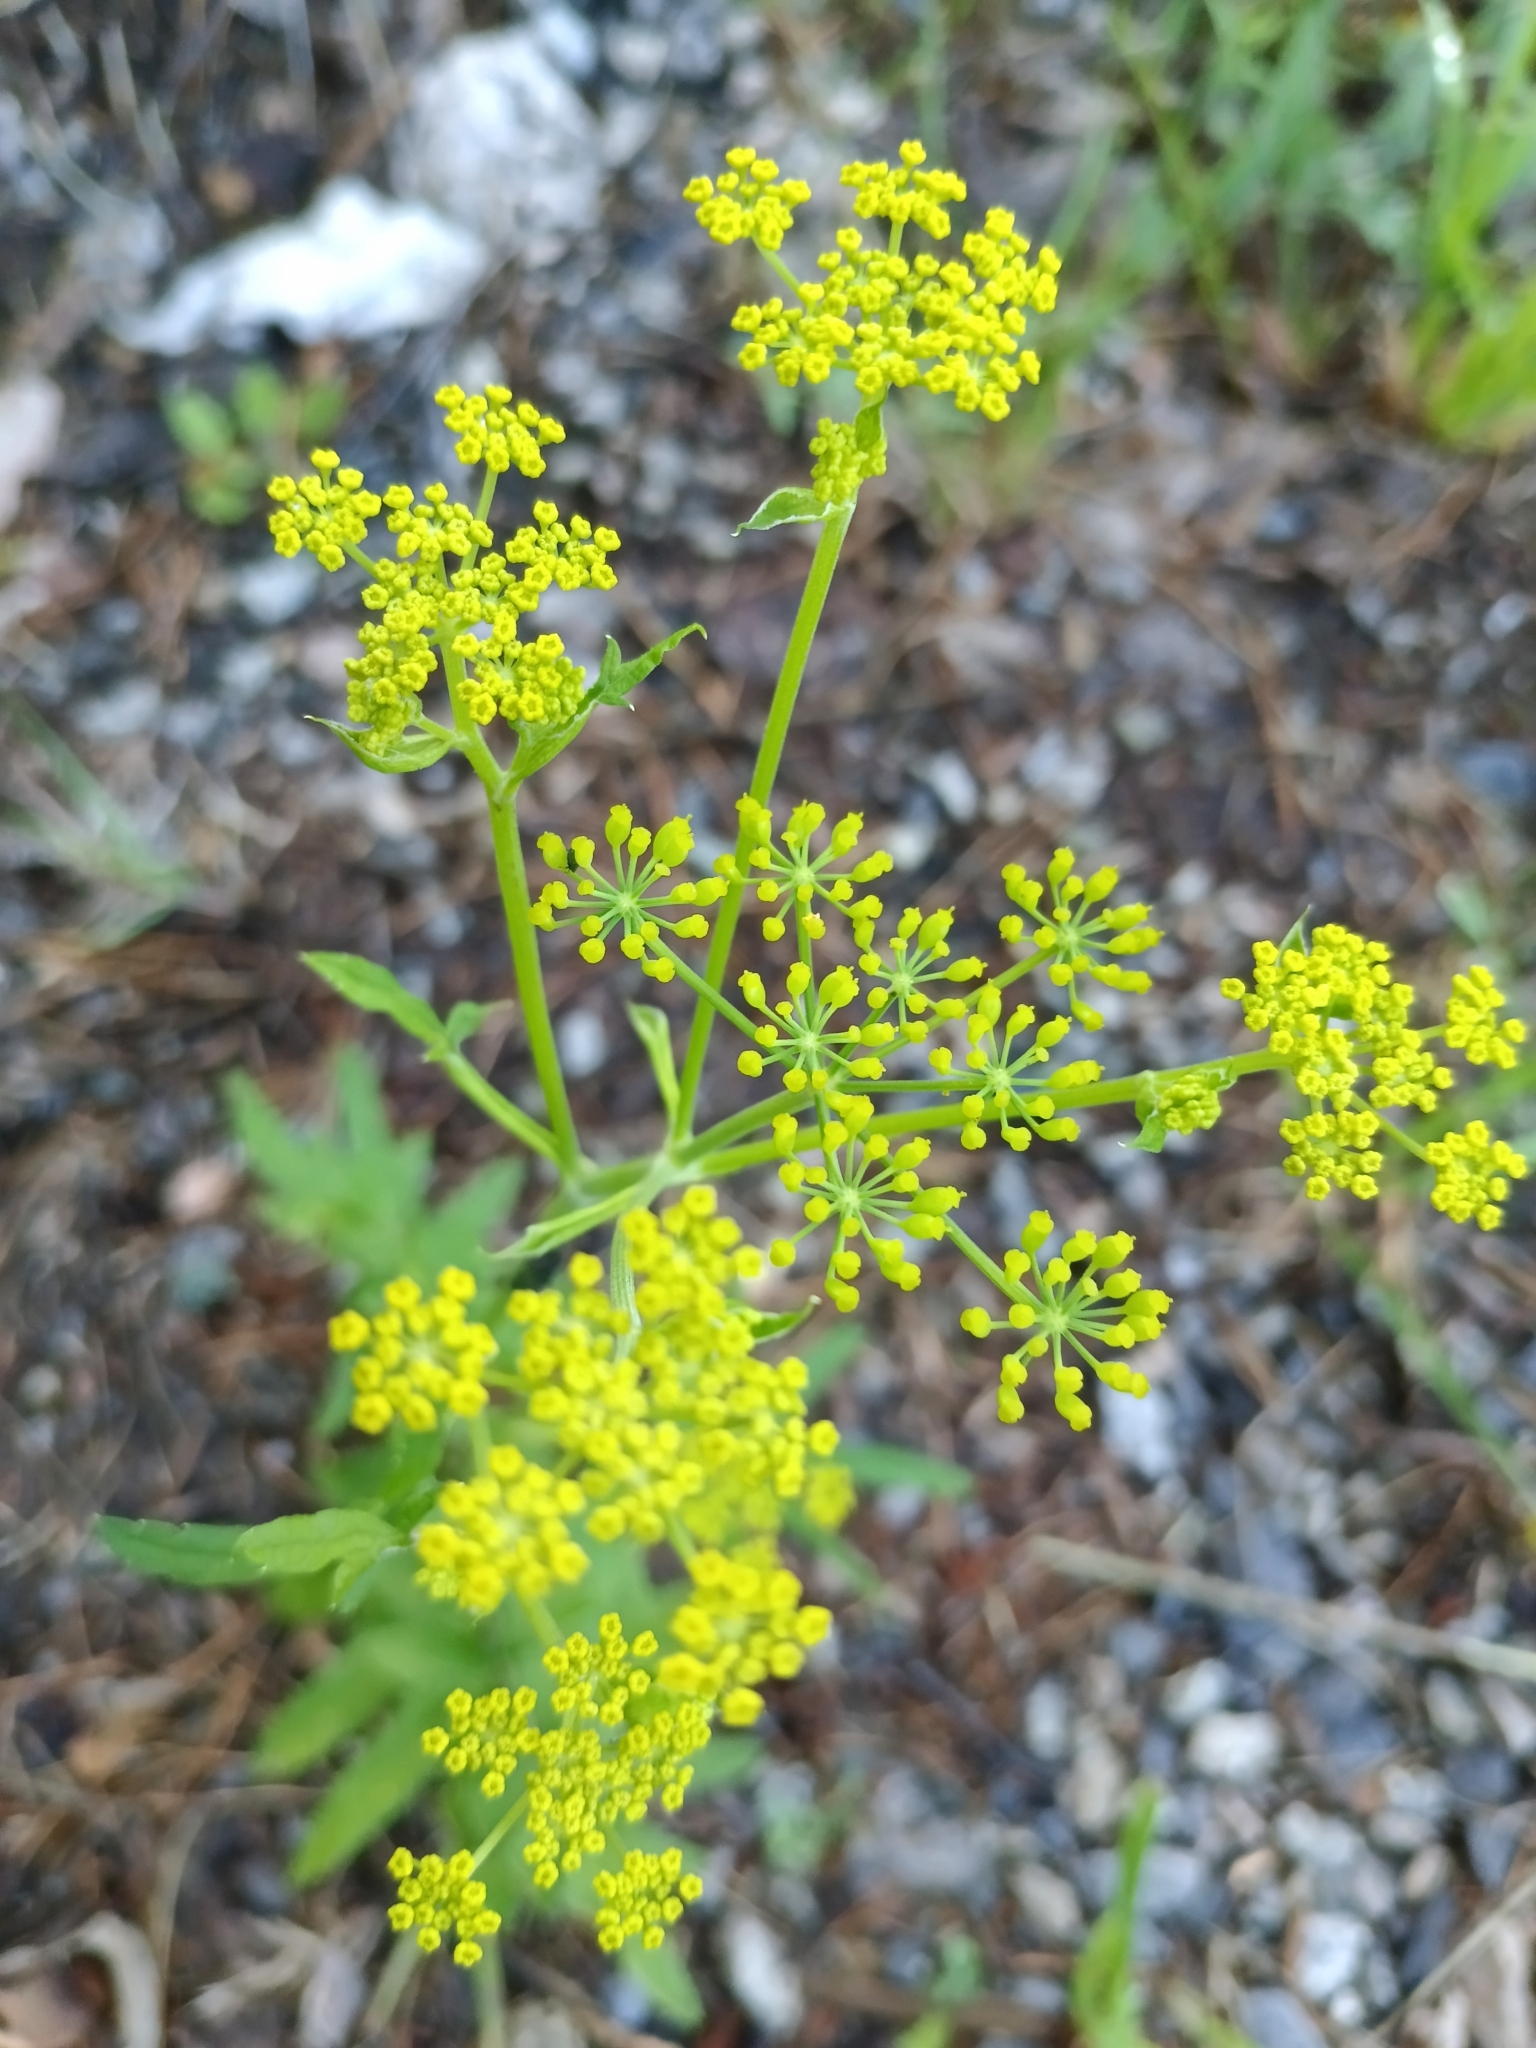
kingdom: Plantae
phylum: Tracheophyta
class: Magnoliopsida
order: Apiales
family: Apiaceae
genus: Pastinaca
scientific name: Pastinaca sativa
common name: Wild parsnip
